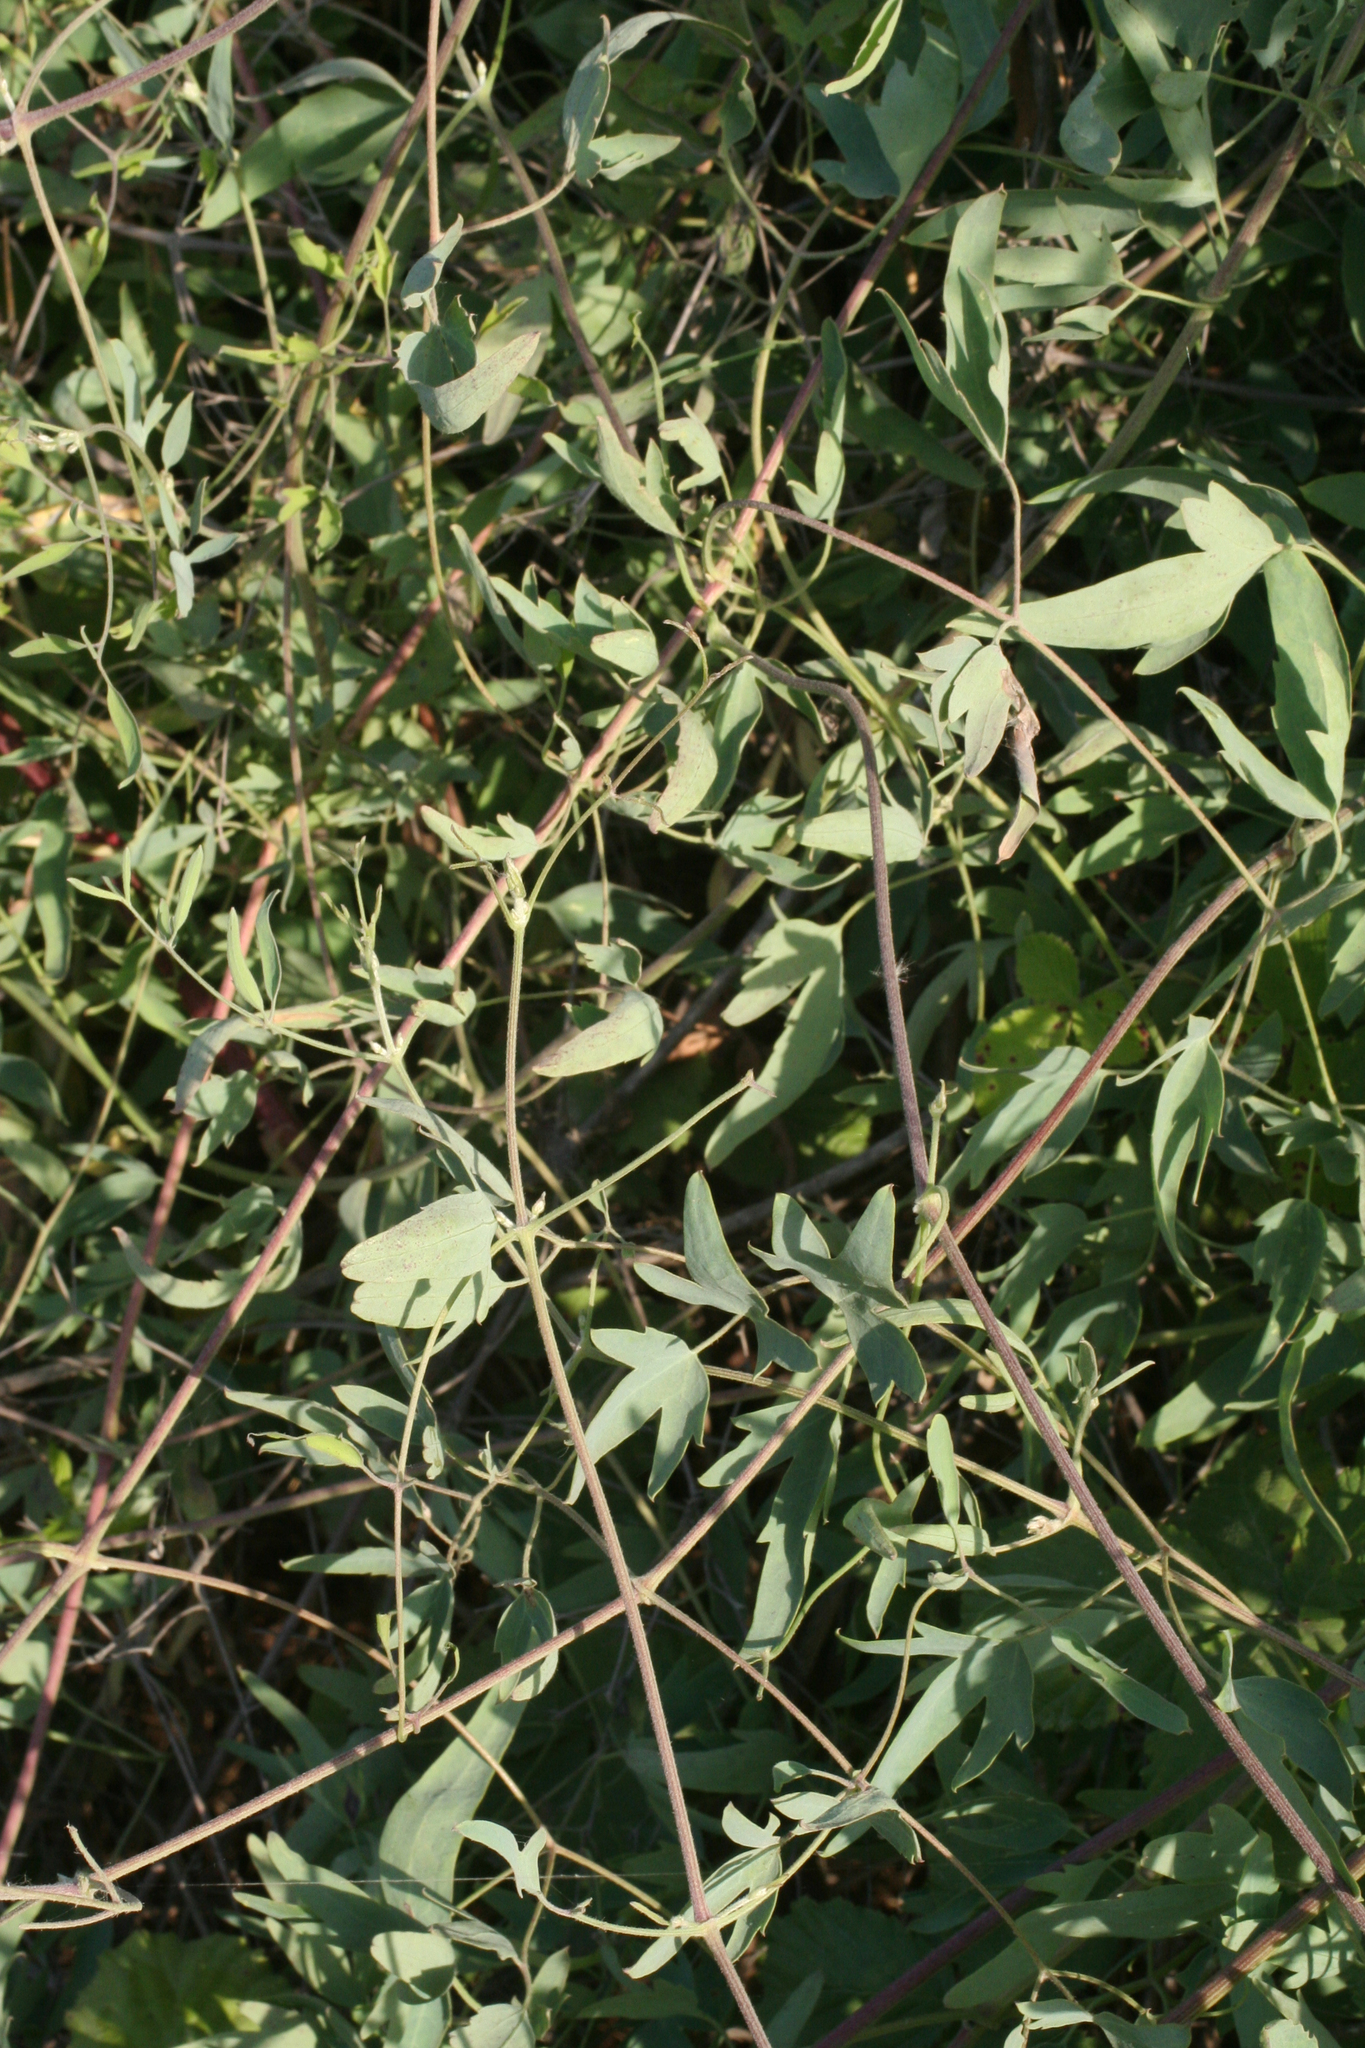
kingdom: Plantae
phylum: Tracheophyta
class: Magnoliopsida
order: Ranunculales
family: Ranunculaceae
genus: Clematis
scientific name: Clematis orientalis
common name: Oriental virgin's-bower
